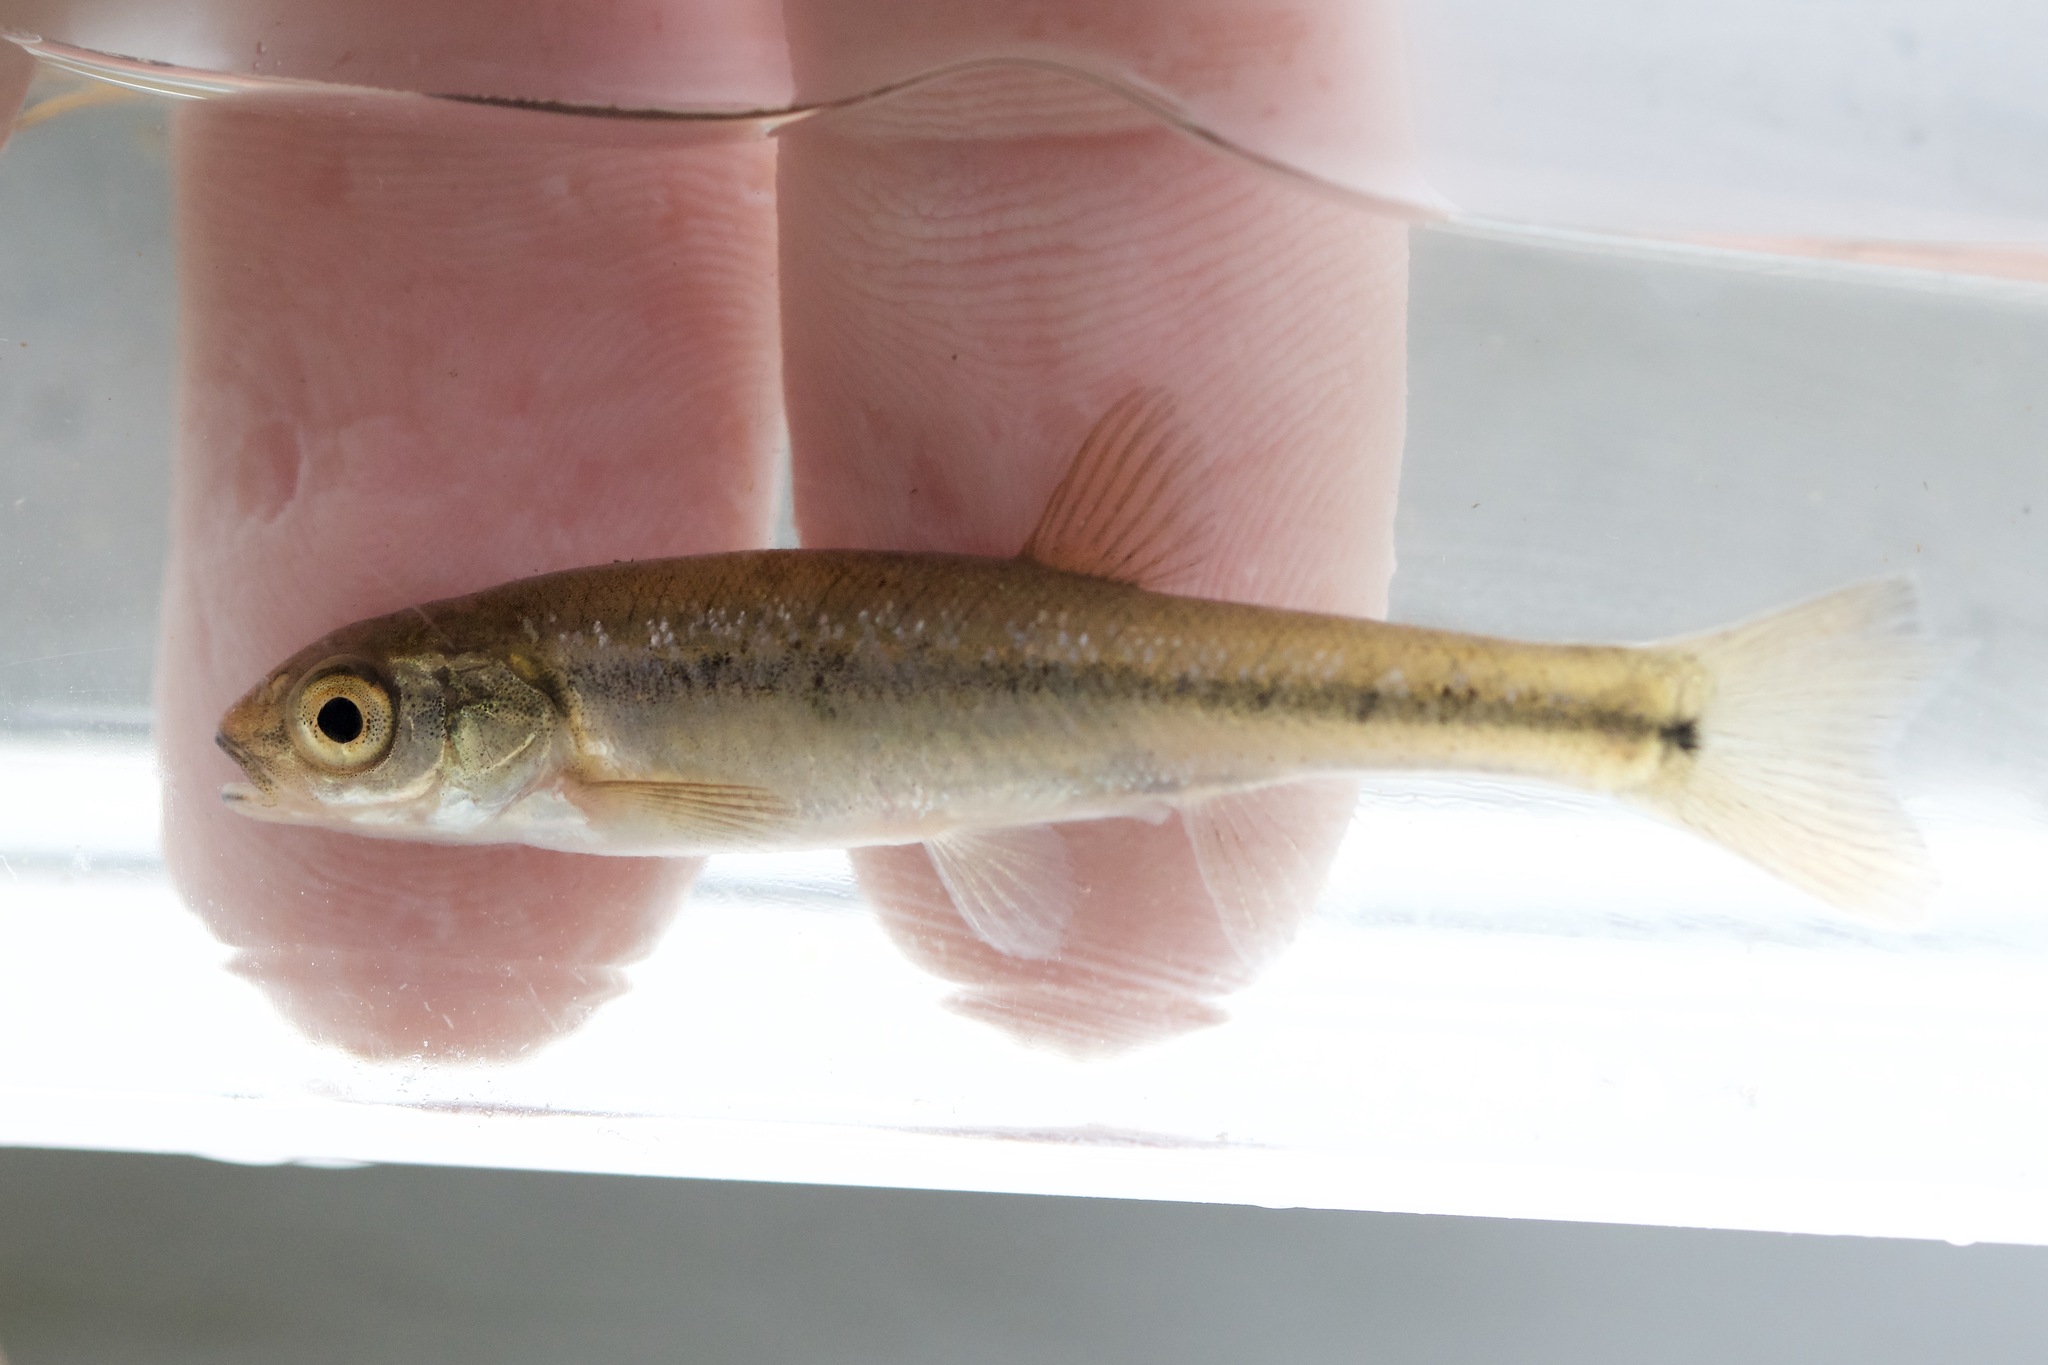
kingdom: Animalia
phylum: Chordata
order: Cypriniformes
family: Cyprinidae
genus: Margariscus
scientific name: Margariscus nachtriebi
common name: Northern pearl dace
